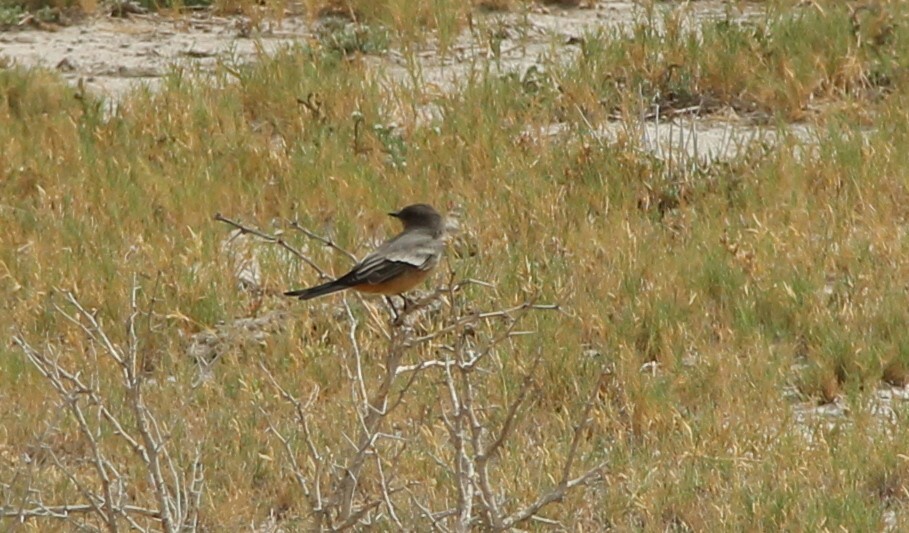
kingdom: Animalia
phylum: Chordata
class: Aves
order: Passeriformes
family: Tyrannidae
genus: Sayornis
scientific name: Sayornis saya
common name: Say's phoebe
